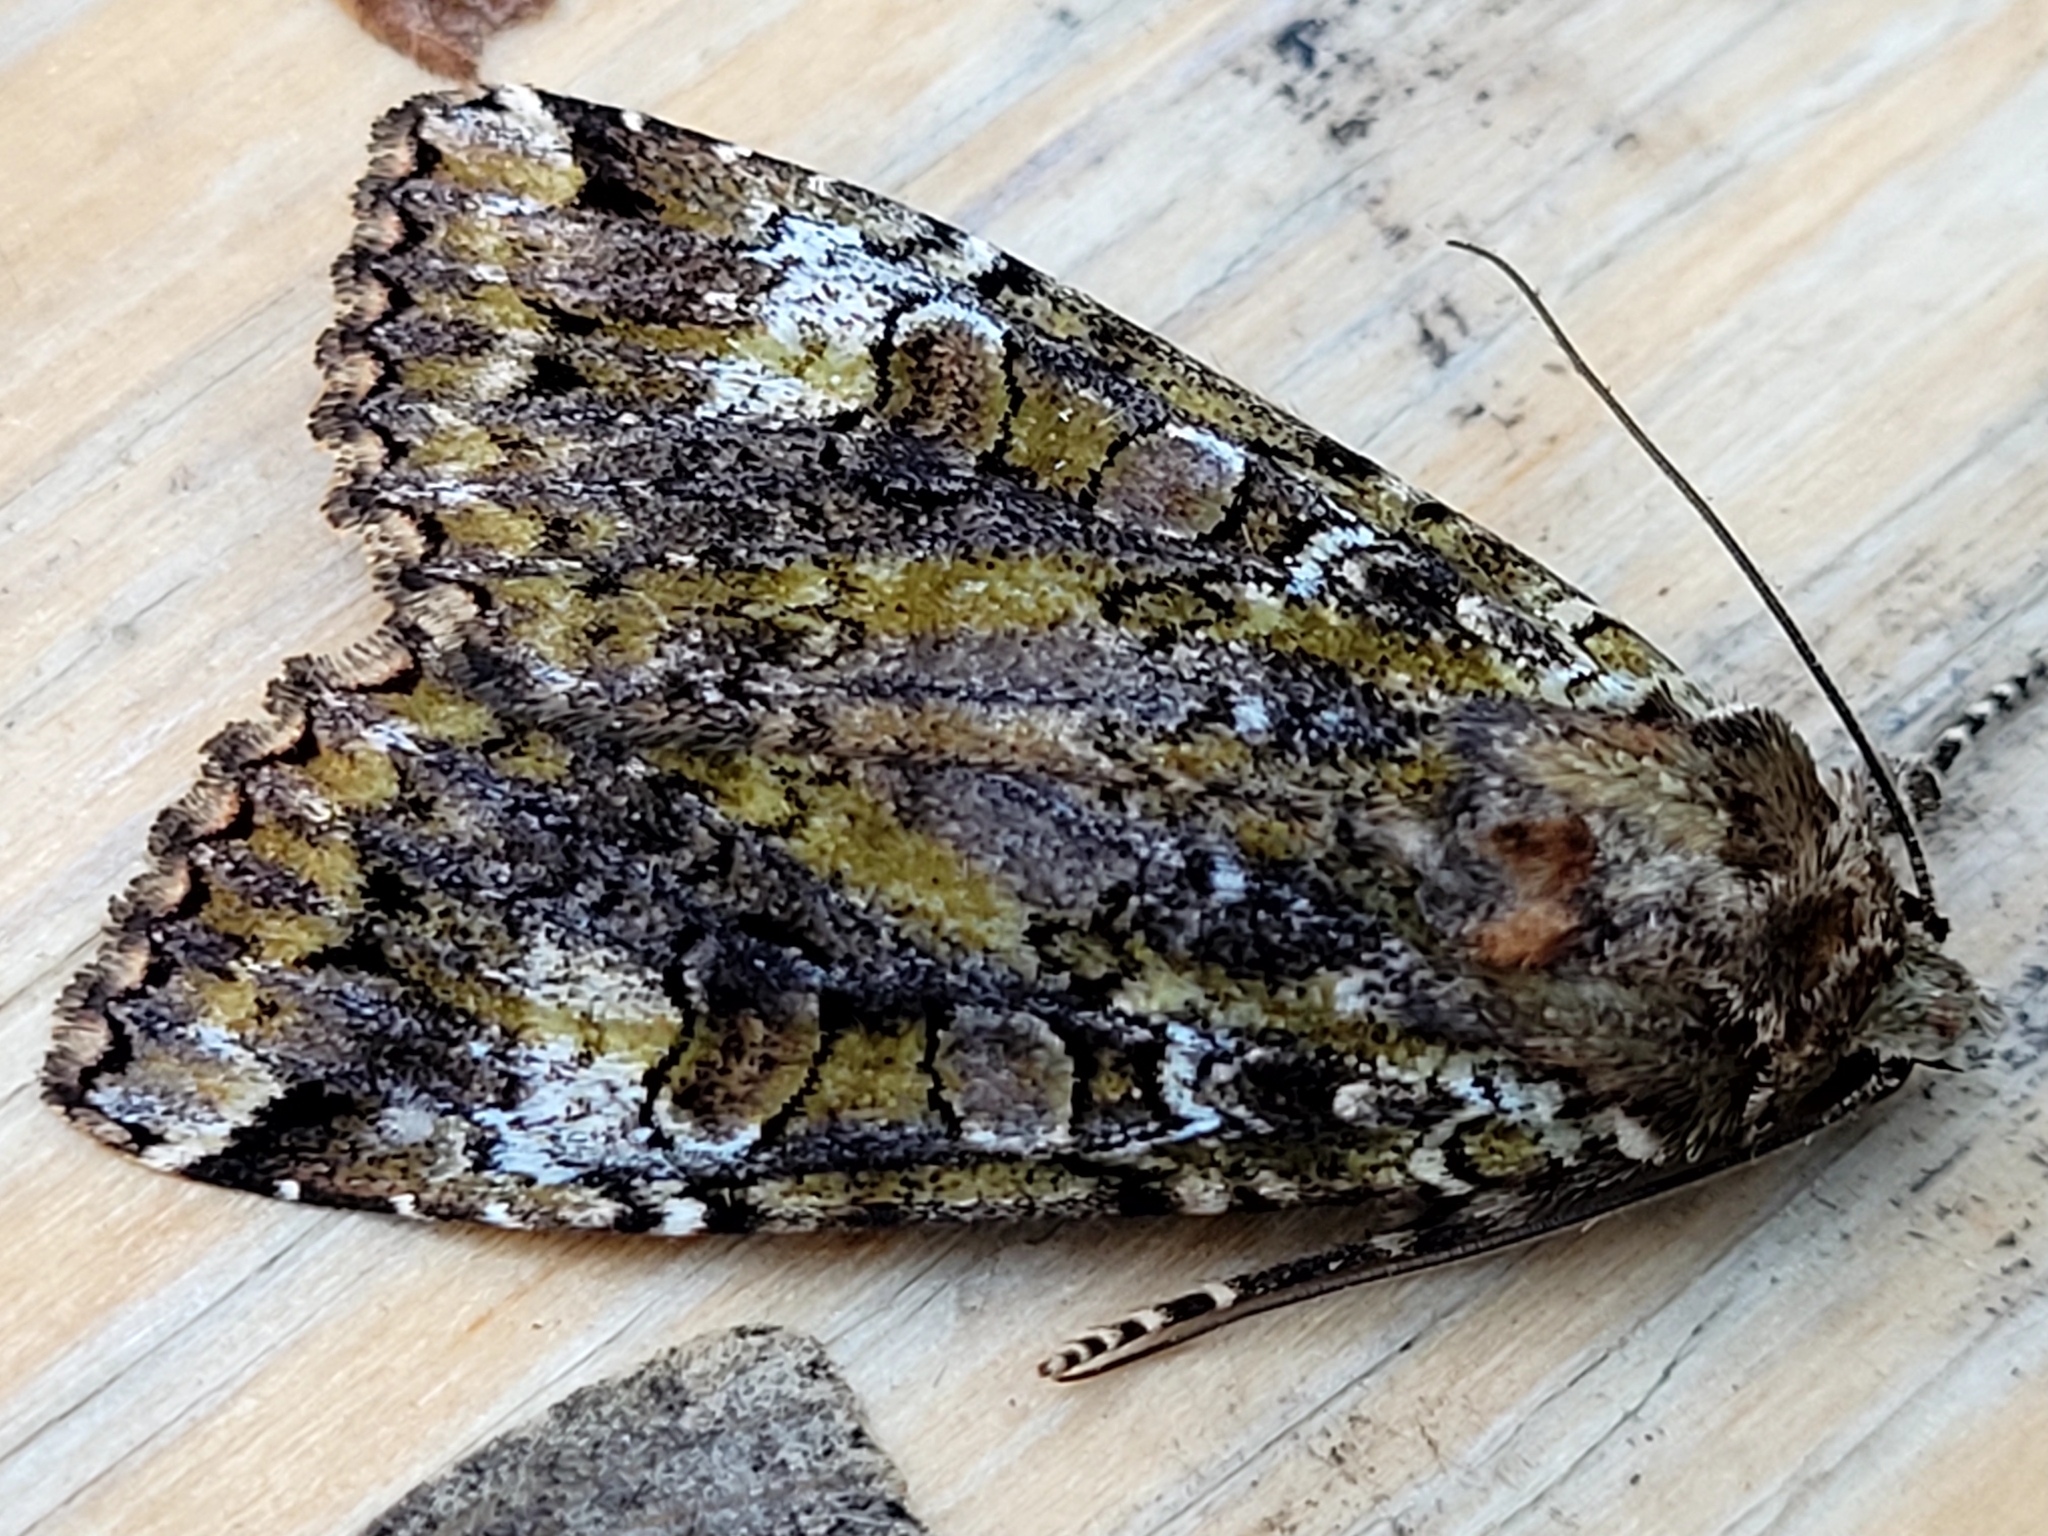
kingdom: Animalia
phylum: Arthropoda
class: Insecta
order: Lepidoptera
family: Noctuidae
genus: Anaplectoides
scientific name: Anaplectoides prasina
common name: Green arches
